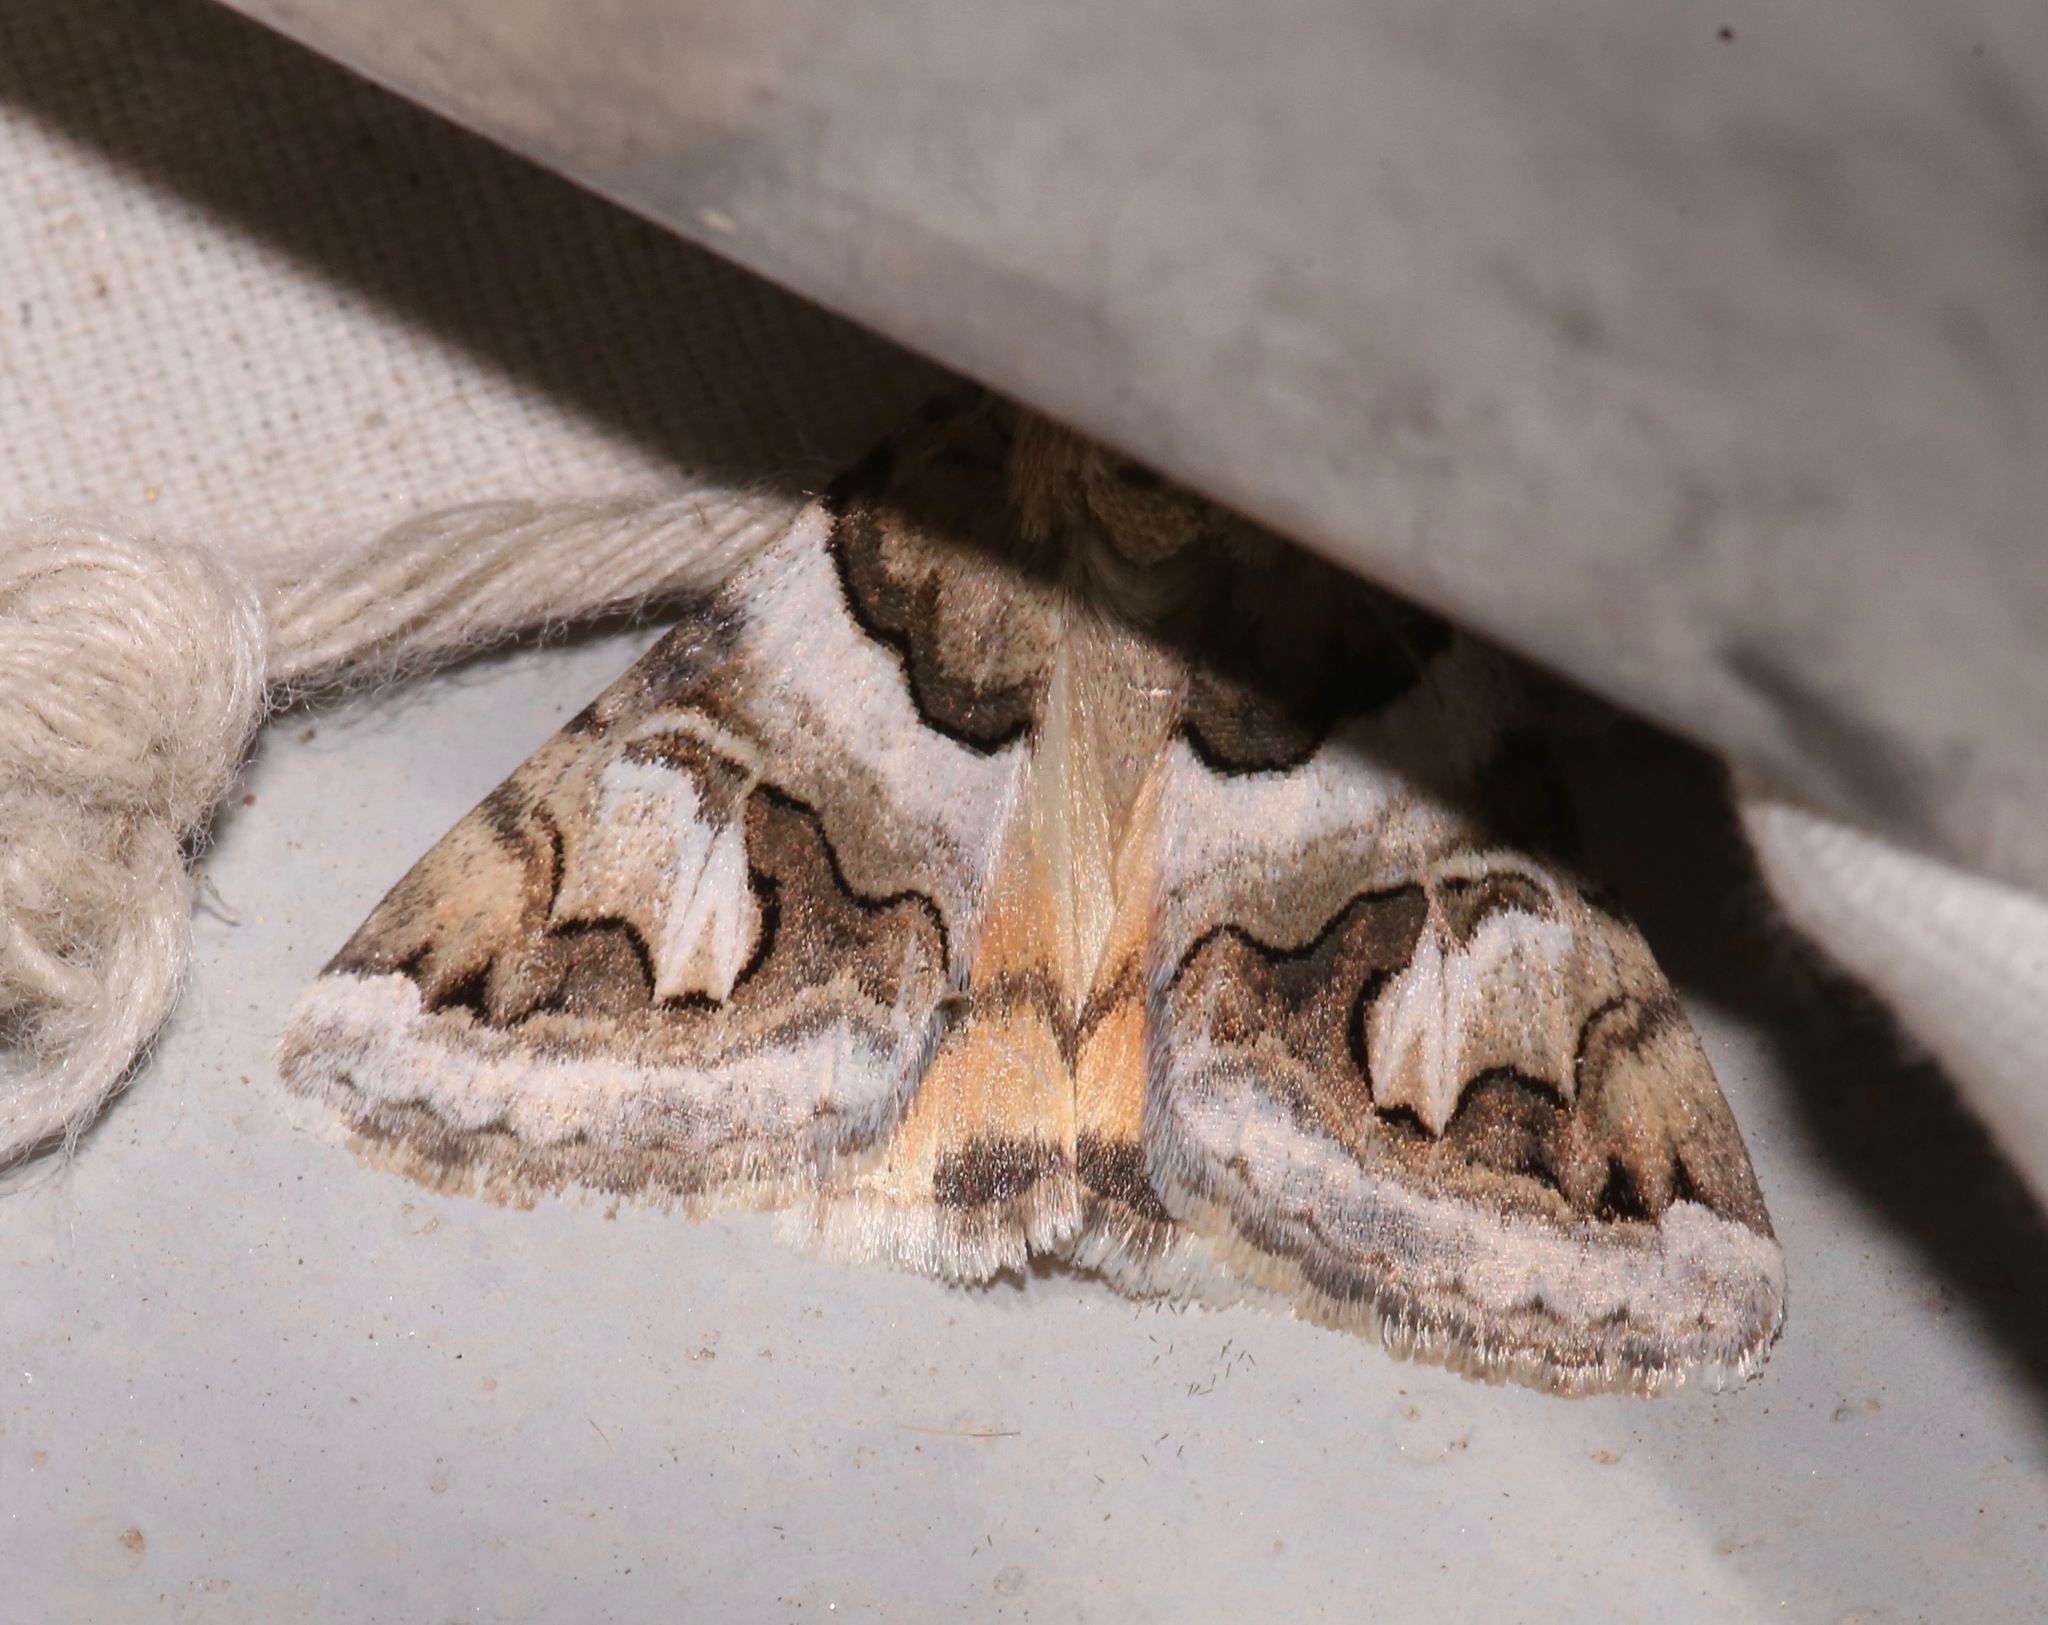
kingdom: Animalia
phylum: Arthropoda
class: Insecta
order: Lepidoptera
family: Erebidae
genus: Drasteria
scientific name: Drasteria howlandii
